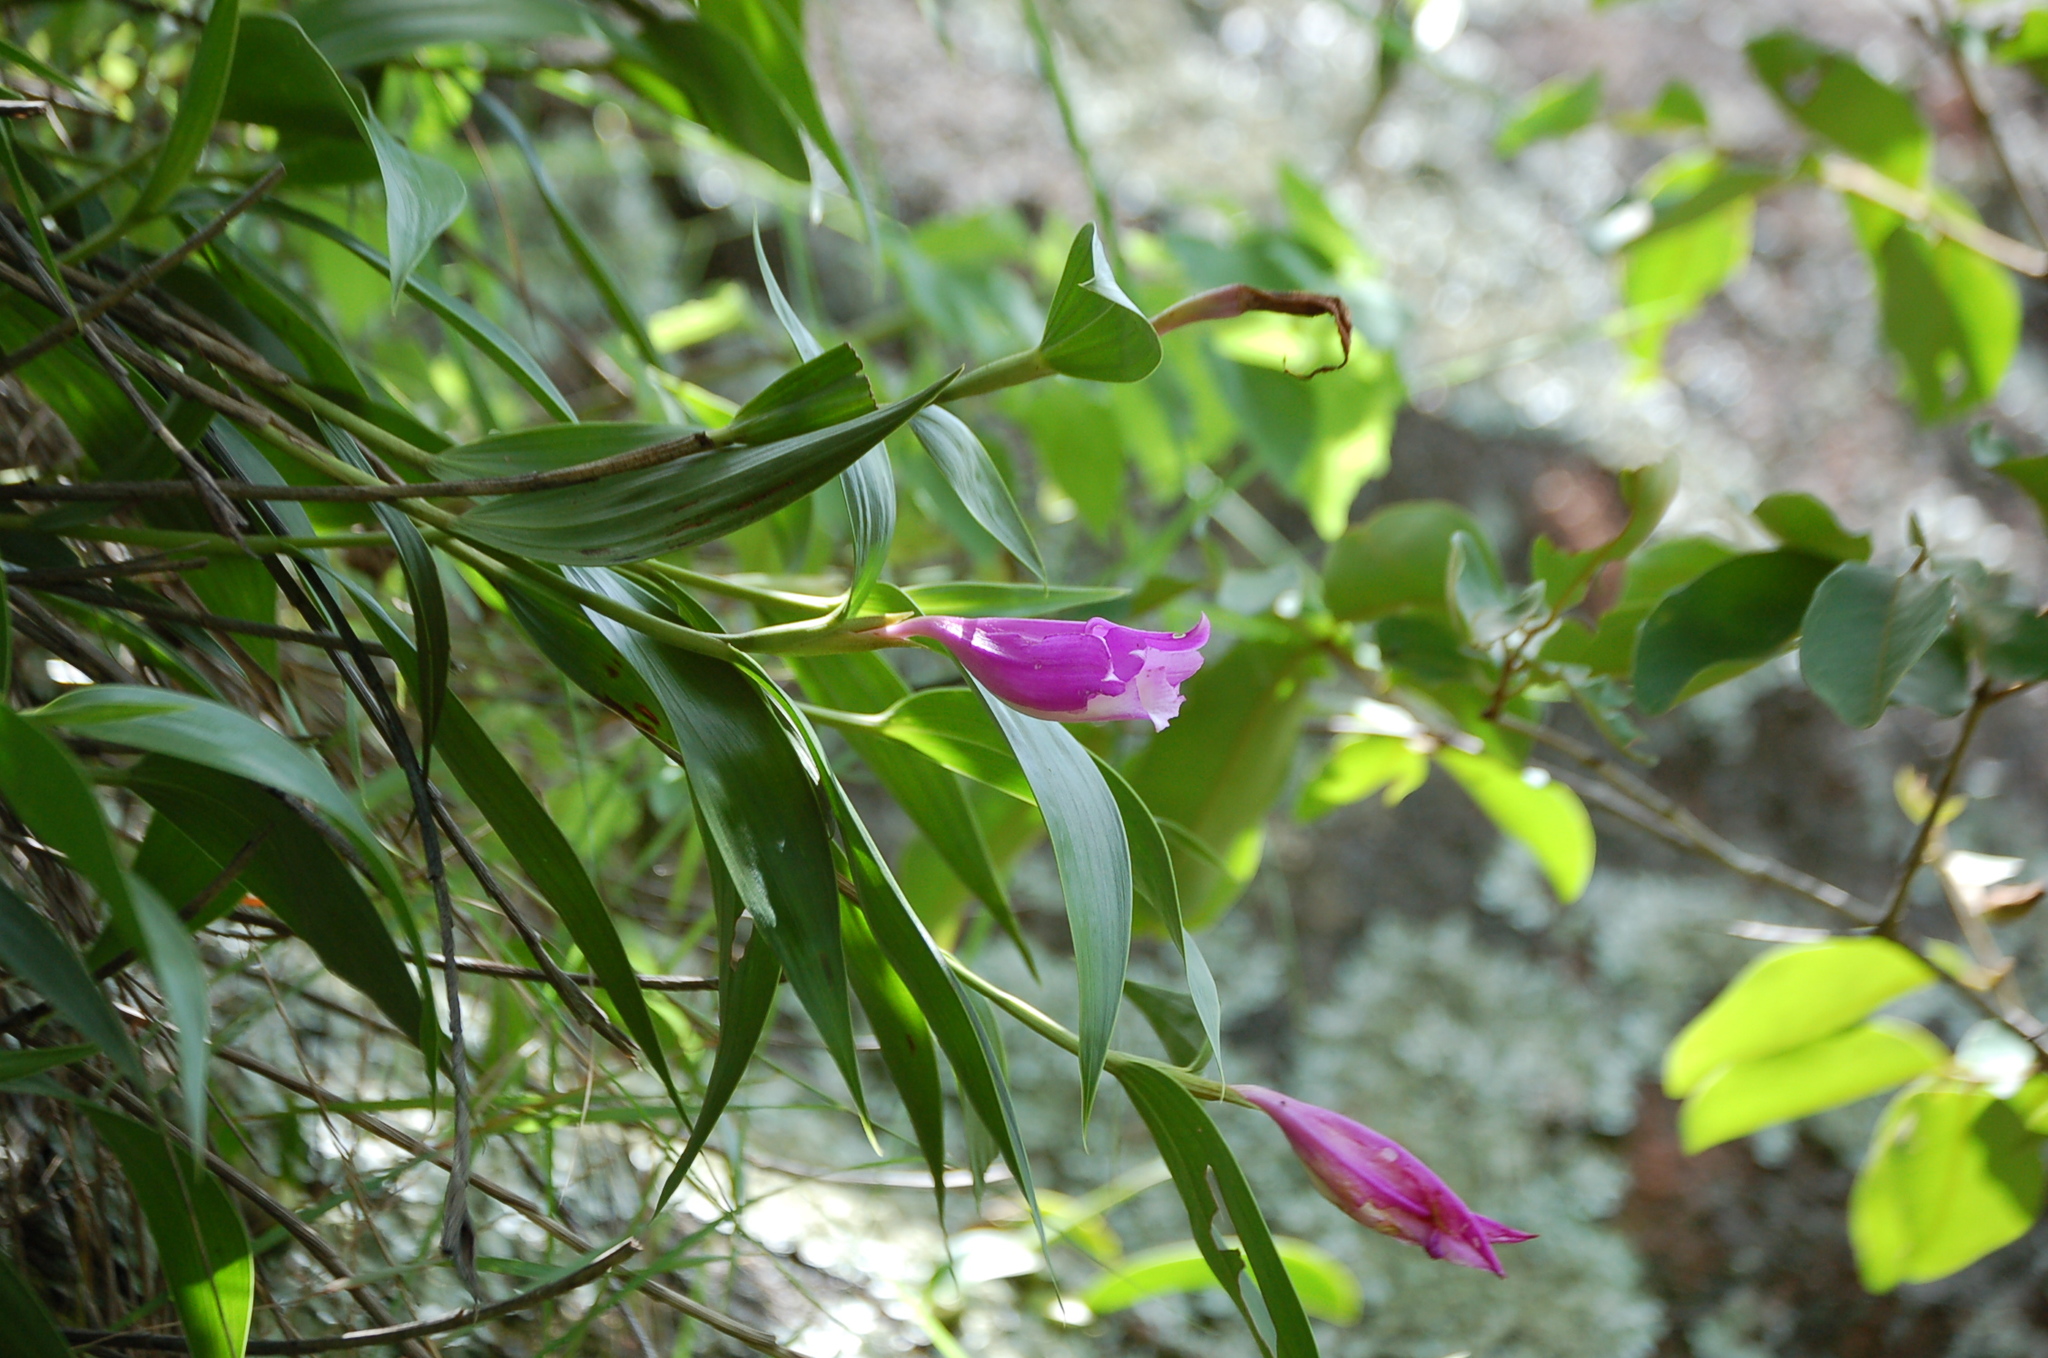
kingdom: Plantae
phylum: Tracheophyta
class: Liliopsida
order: Asparagales
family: Orchidaceae
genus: Sobralia
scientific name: Sobralia macdougallii
